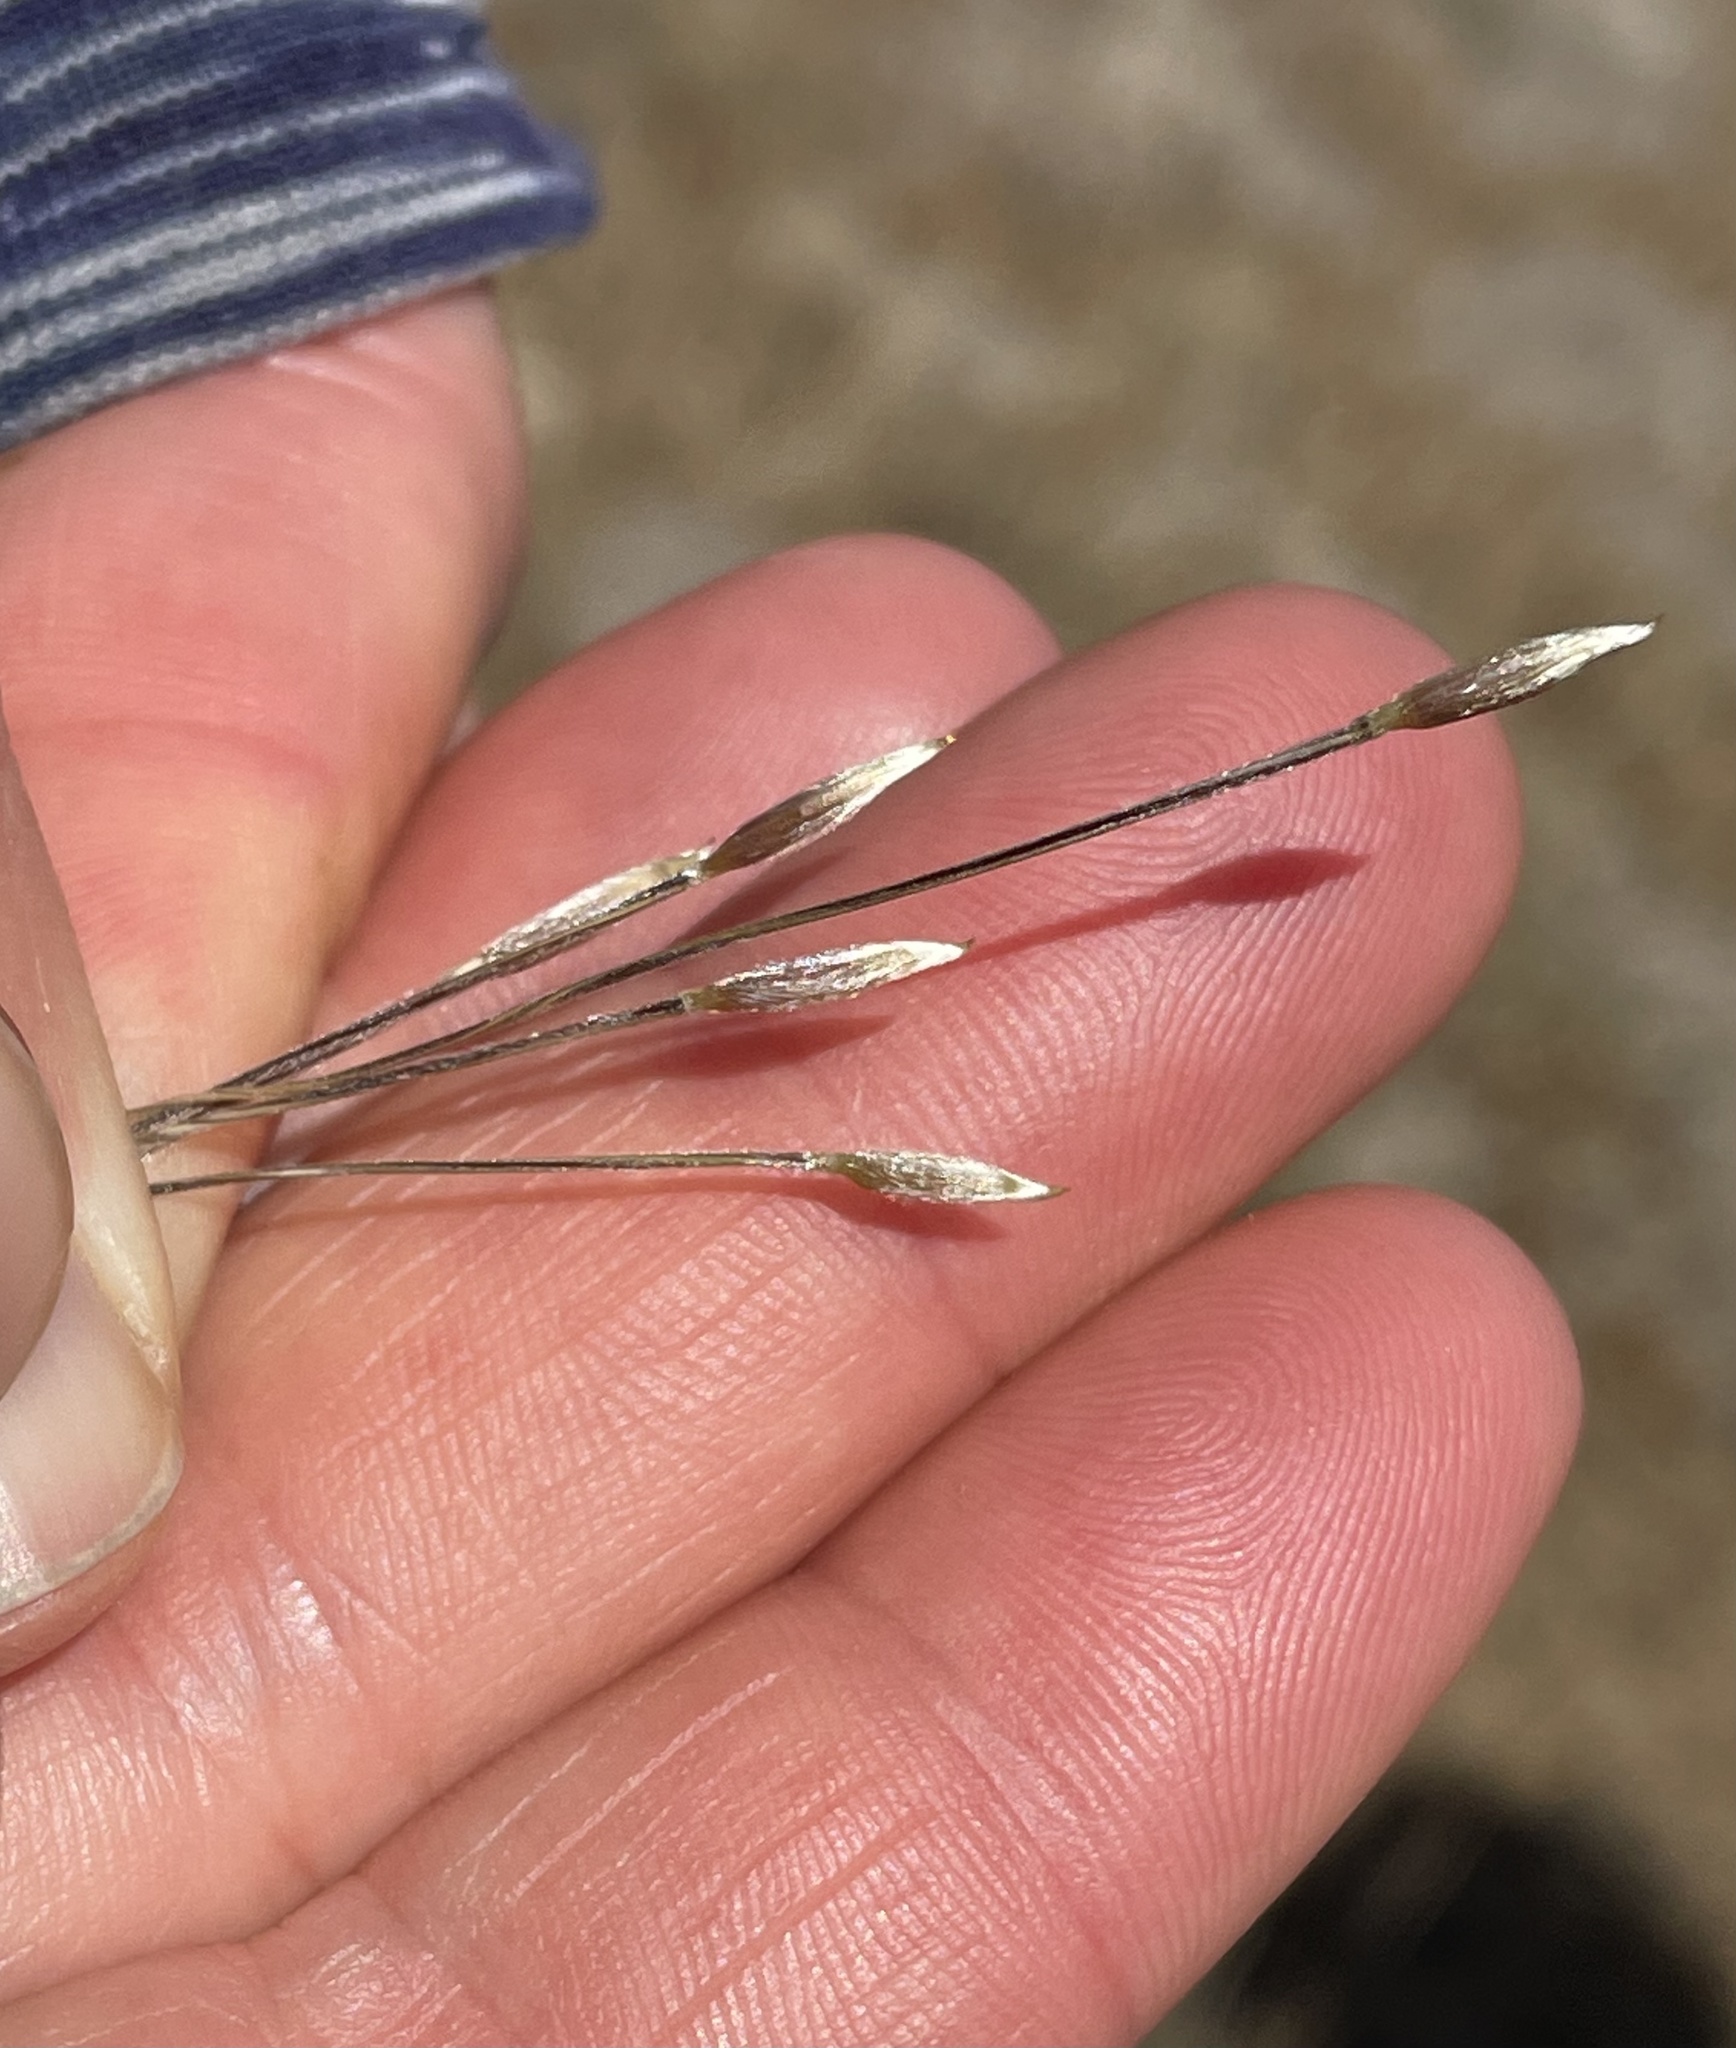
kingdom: Plantae
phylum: Tracheophyta
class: Liliopsida
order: Poales
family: Poaceae
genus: Nassella
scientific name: Nassella pulchra
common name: Purple needlegrass
